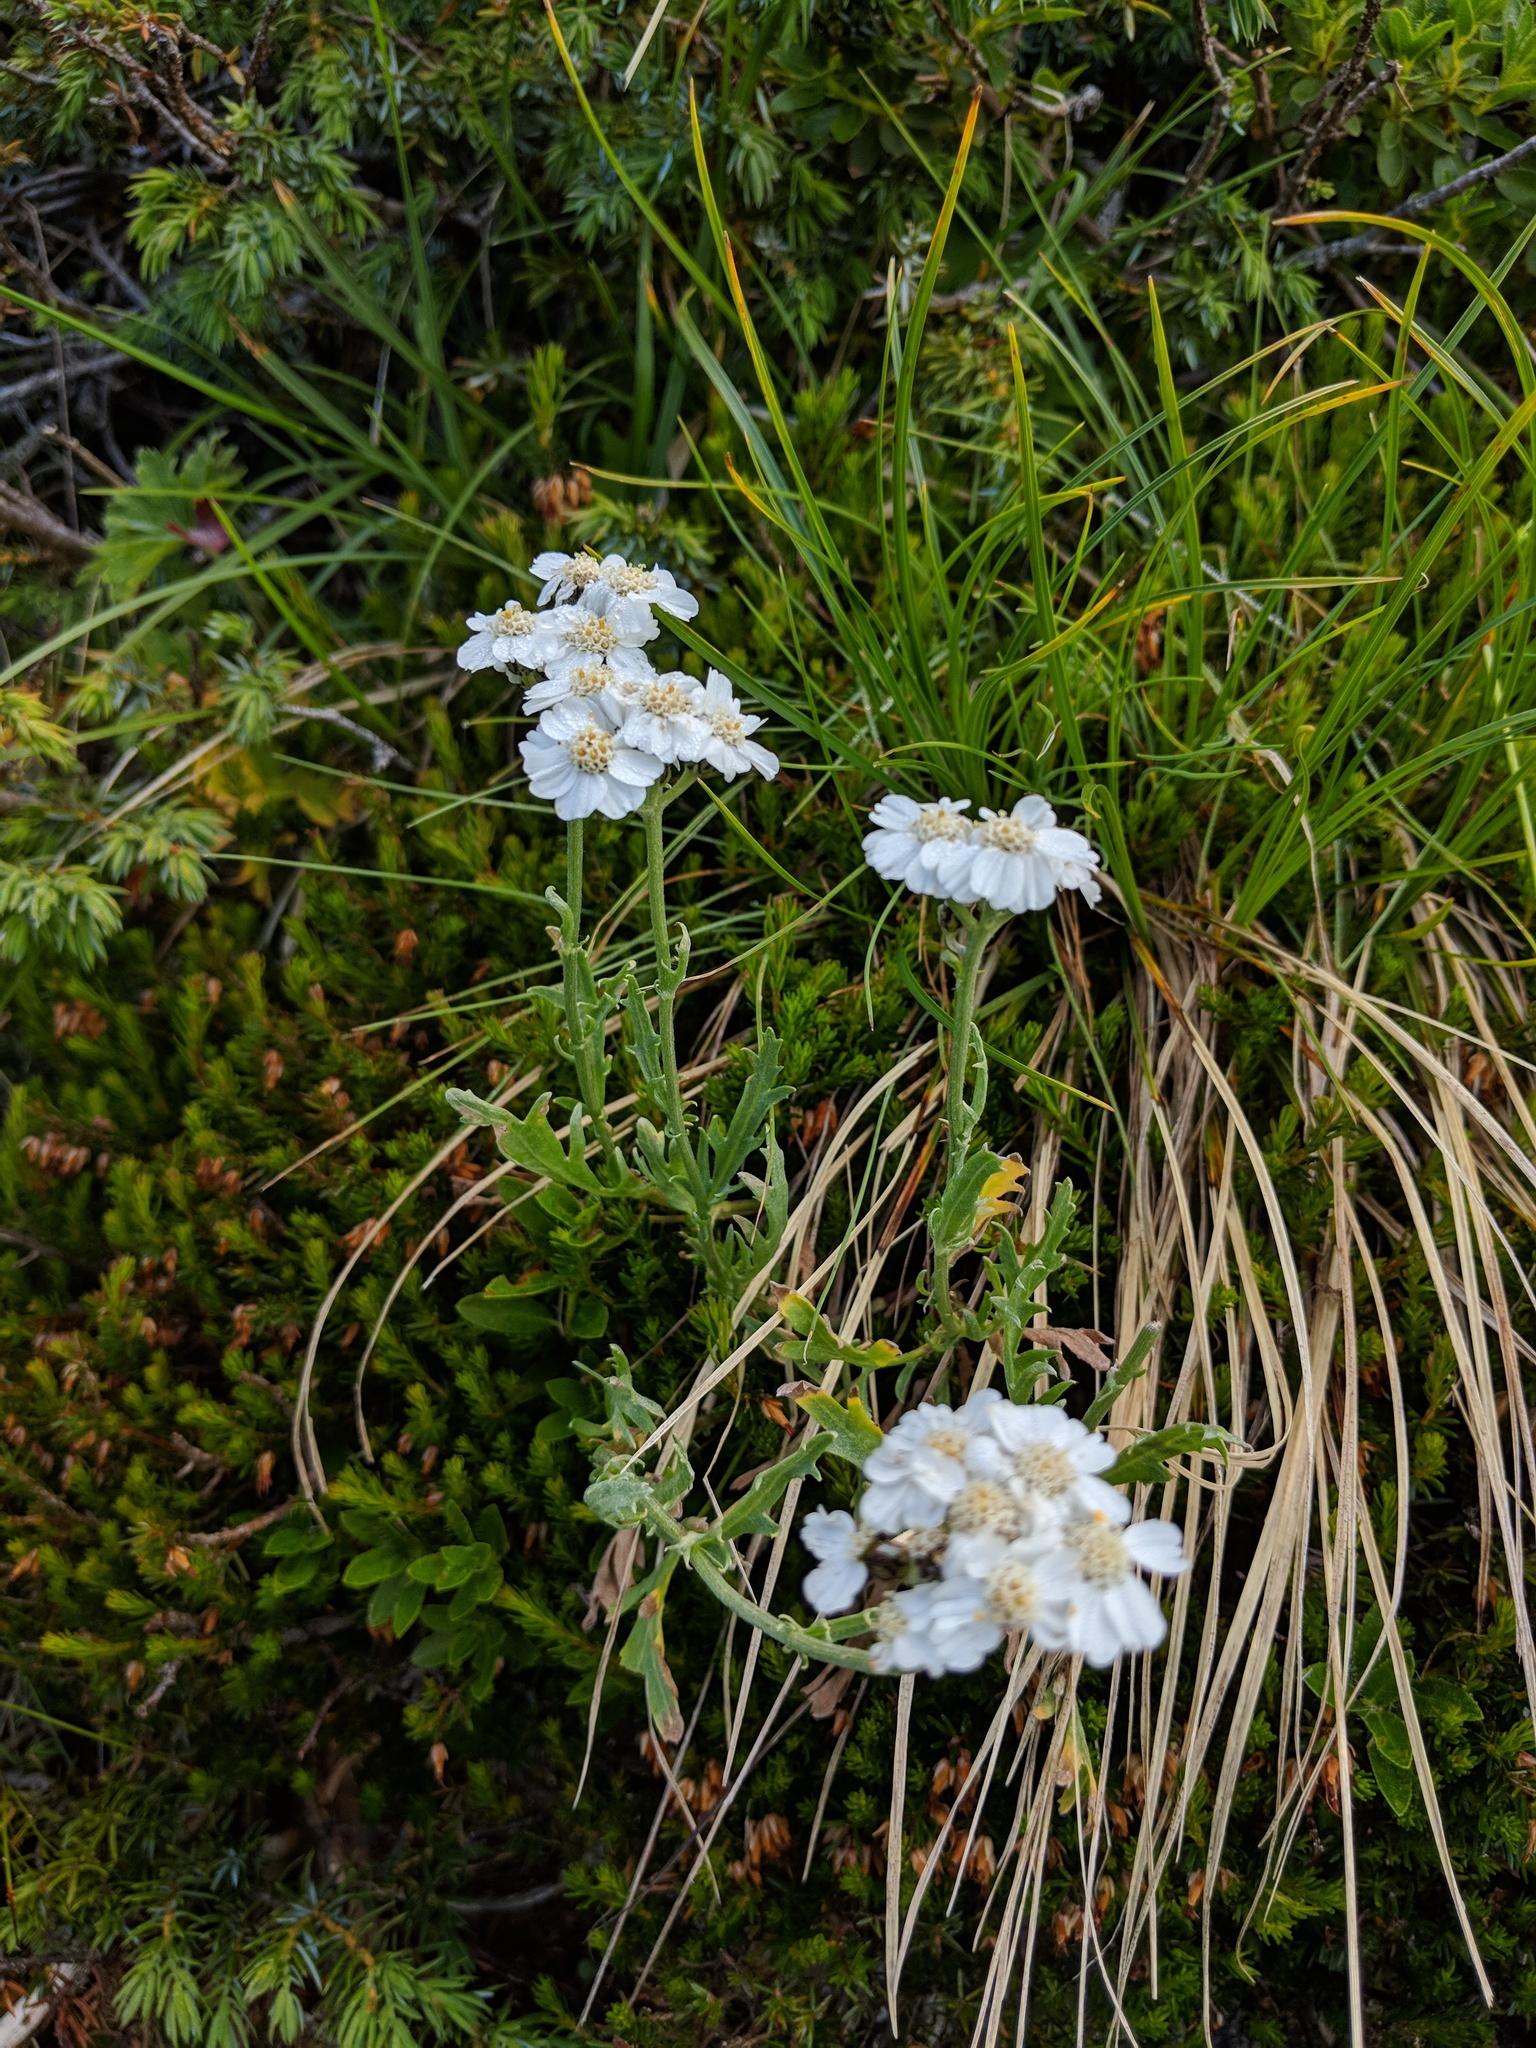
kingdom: Plantae
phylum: Tracheophyta
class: Magnoliopsida
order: Asterales
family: Asteraceae
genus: Achillea
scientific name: Achillea clavennae
